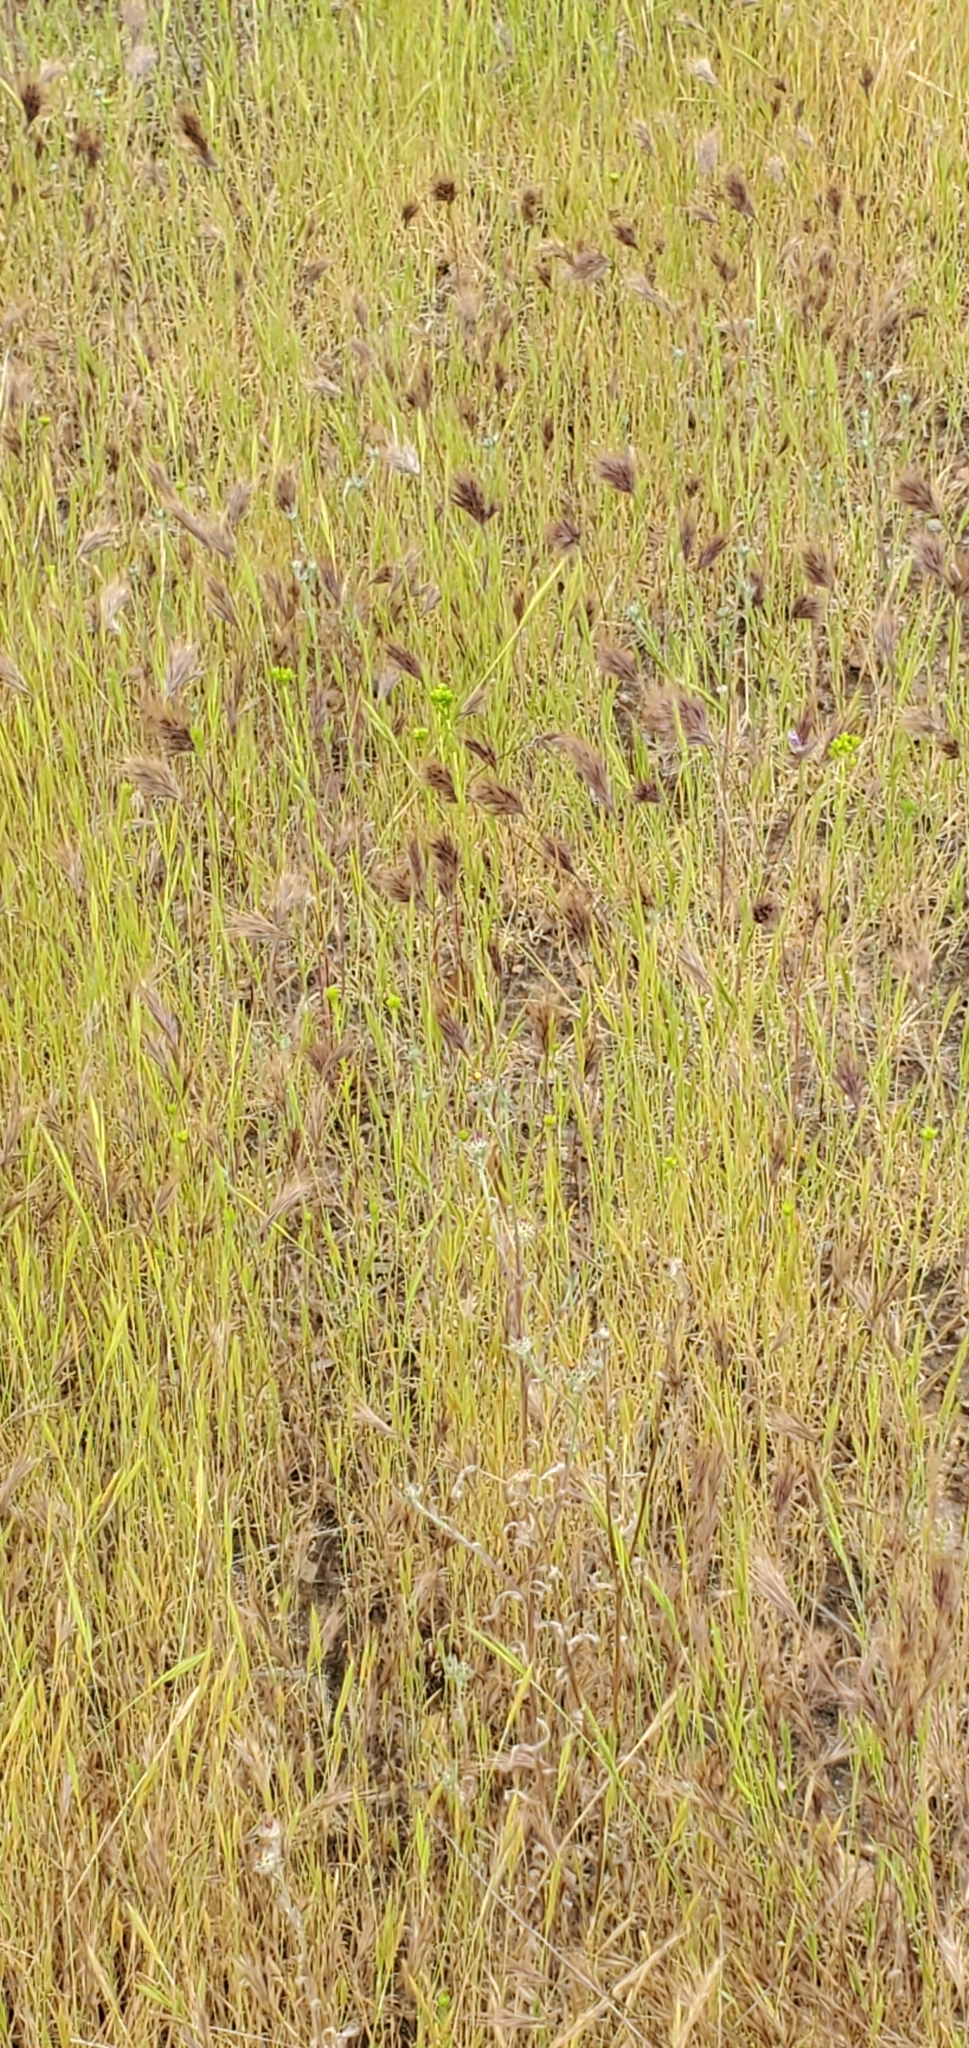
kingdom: Plantae
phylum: Tracheophyta
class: Liliopsida
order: Poales
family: Poaceae
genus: Bromus
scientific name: Bromus rubens
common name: Red brome
